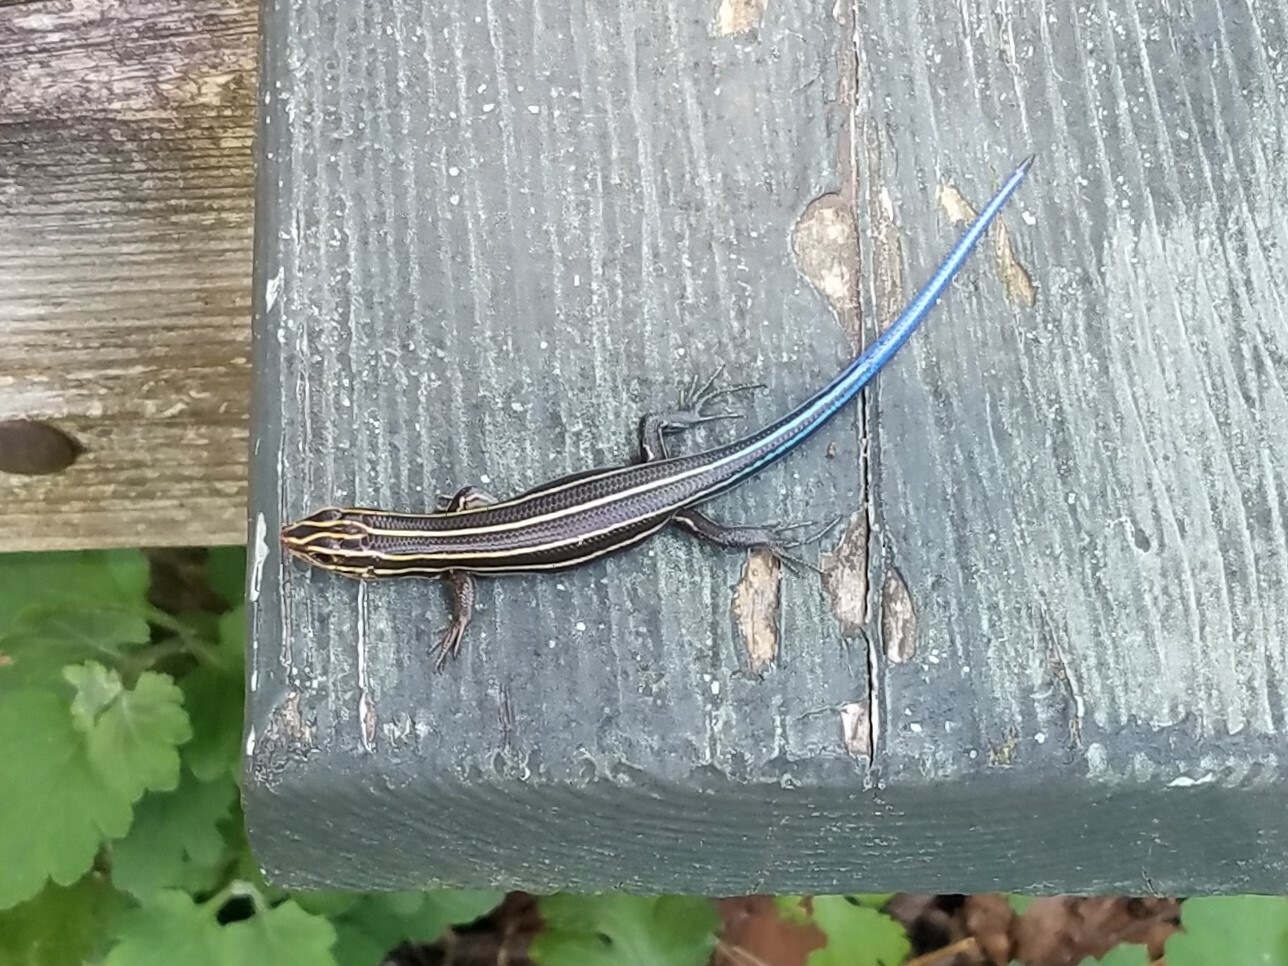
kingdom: Animalia
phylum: Chordata
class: Squamata
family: Scincidae
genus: Plestiodon
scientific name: Plestiodon laticeps
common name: Broadhead skink
